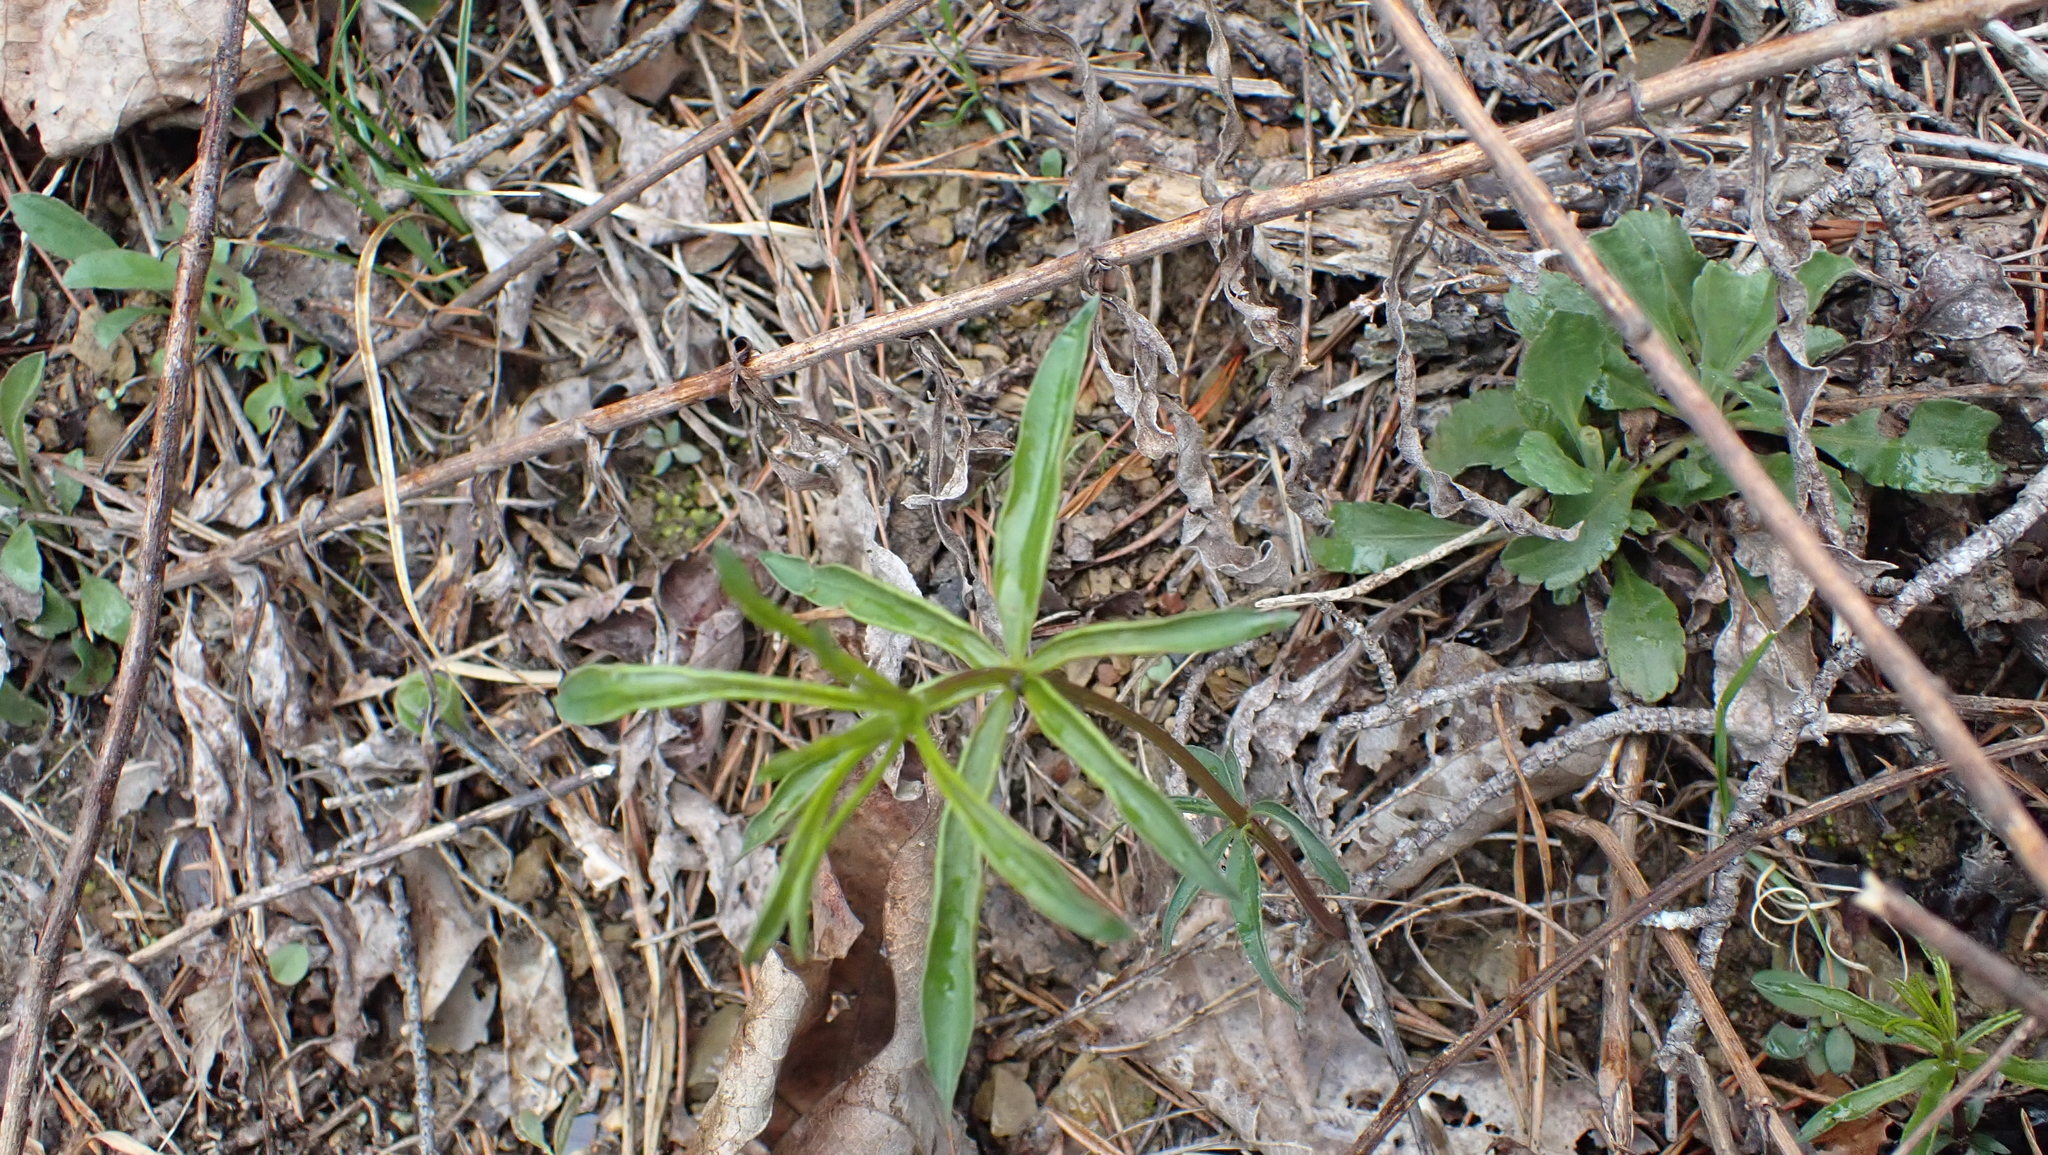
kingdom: Plantae
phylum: Tracheophyta
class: Magnoliopsida
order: Asterales
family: Asteraceae
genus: Coreopsis
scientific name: Coreopsis major
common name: Forest tickseed
